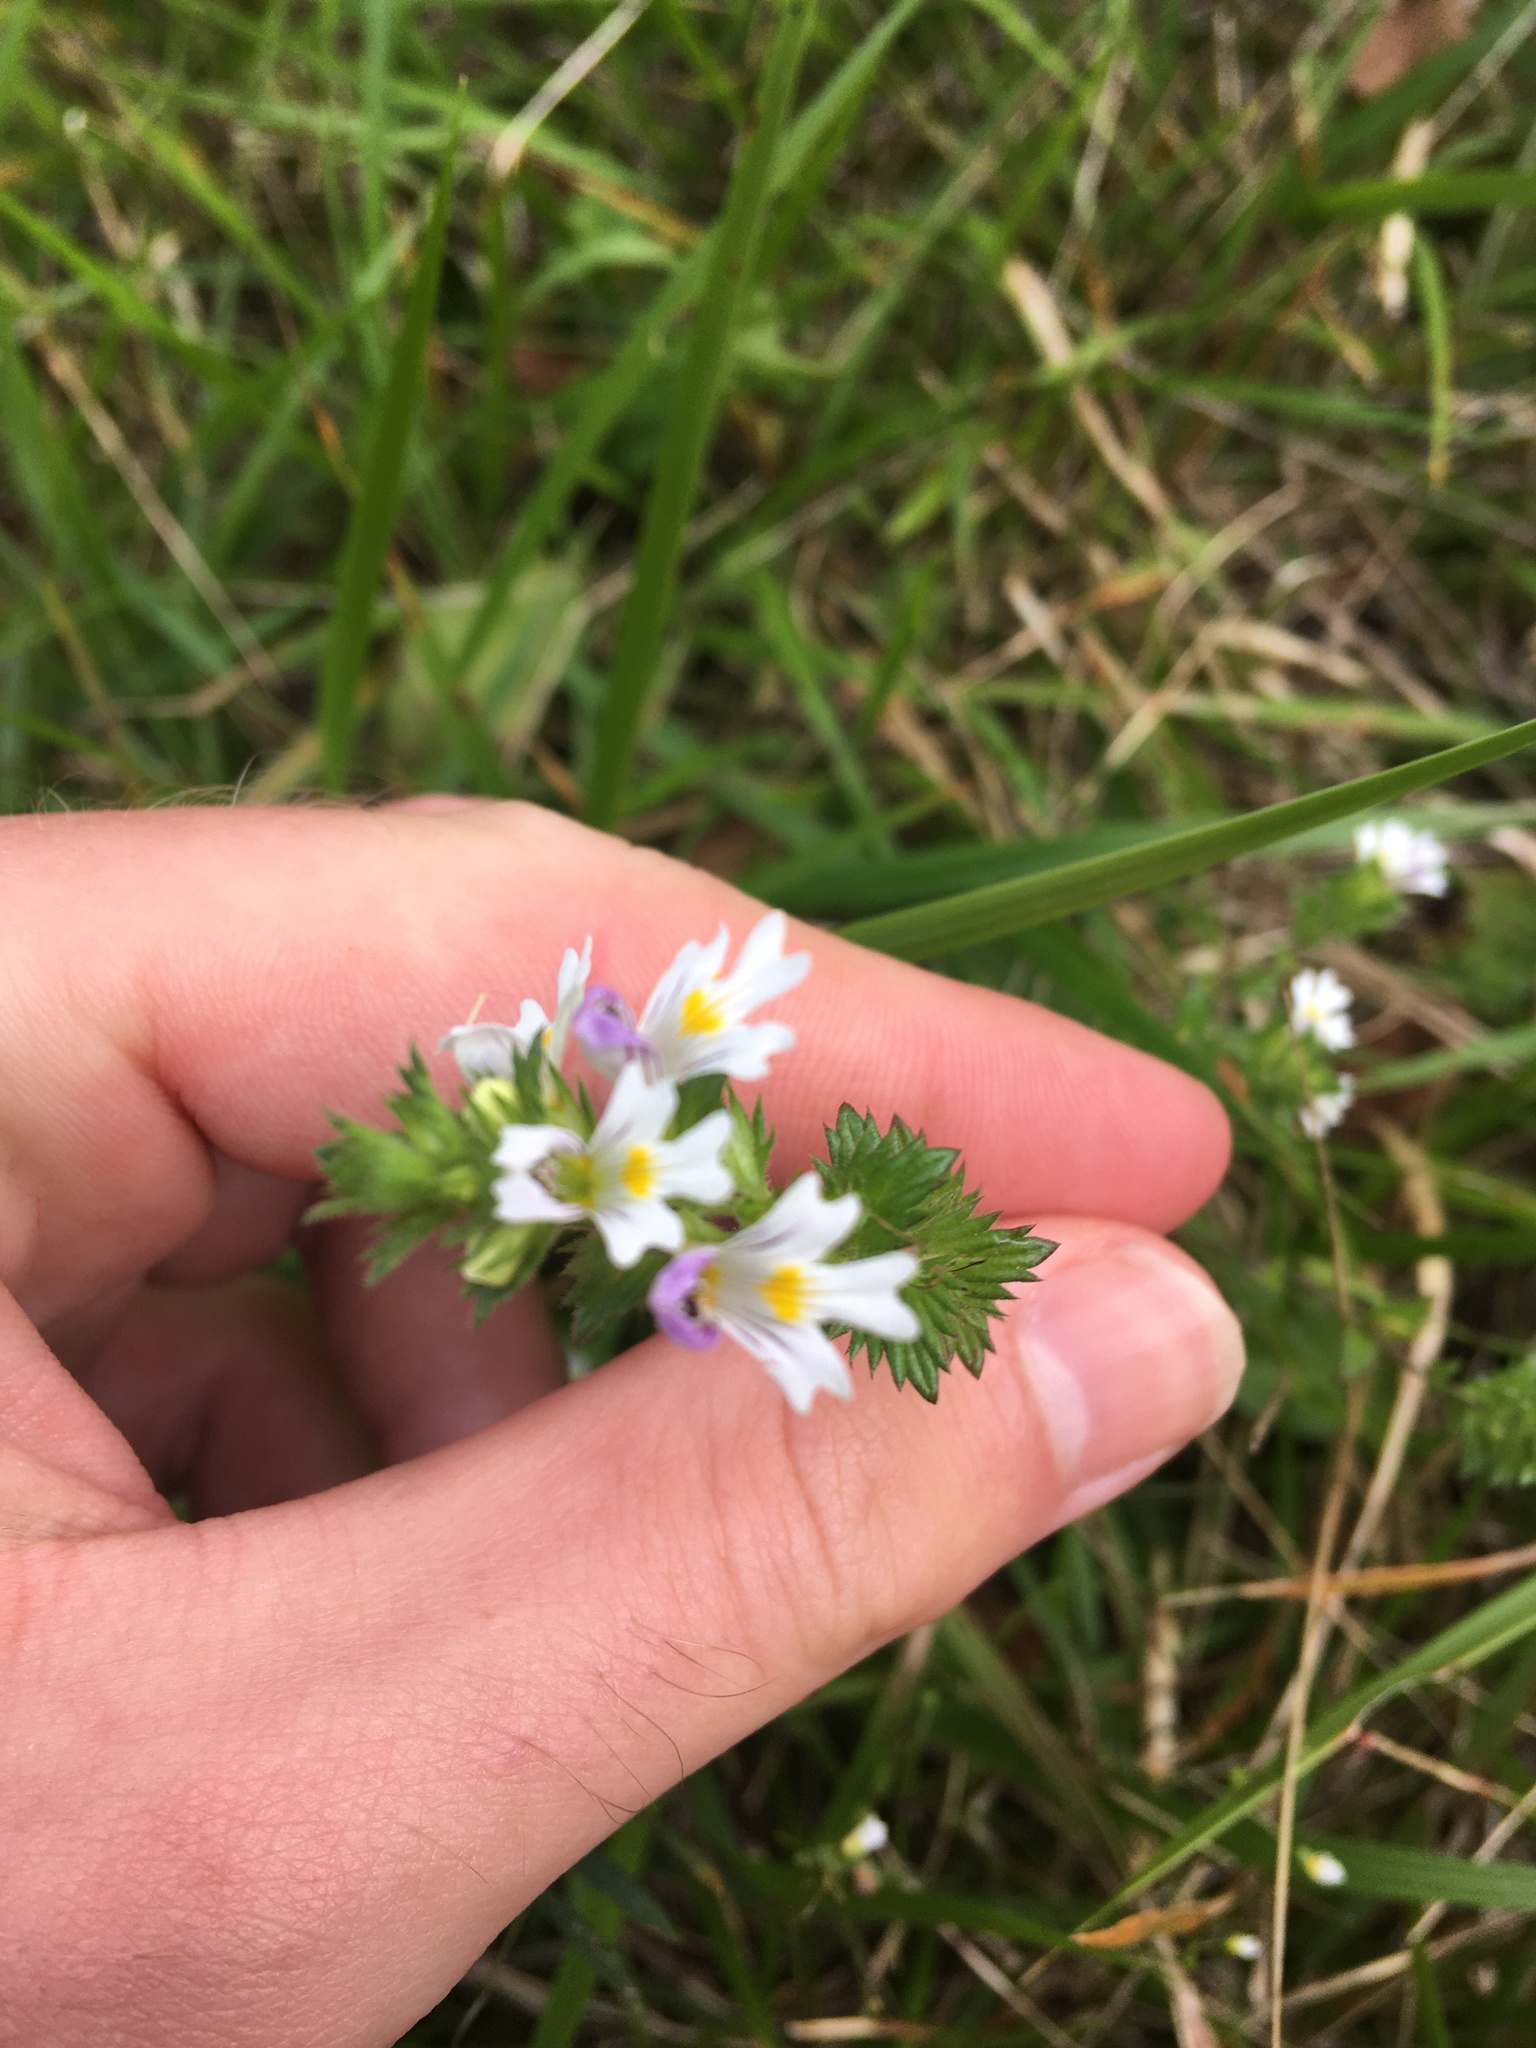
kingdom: Plantae
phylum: Tracheophyta
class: Magnoliopsida
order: Lamiales
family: Orobanchaceae
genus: Euphrasia
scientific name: Euphrasia nemorosa
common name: Common eyebright
